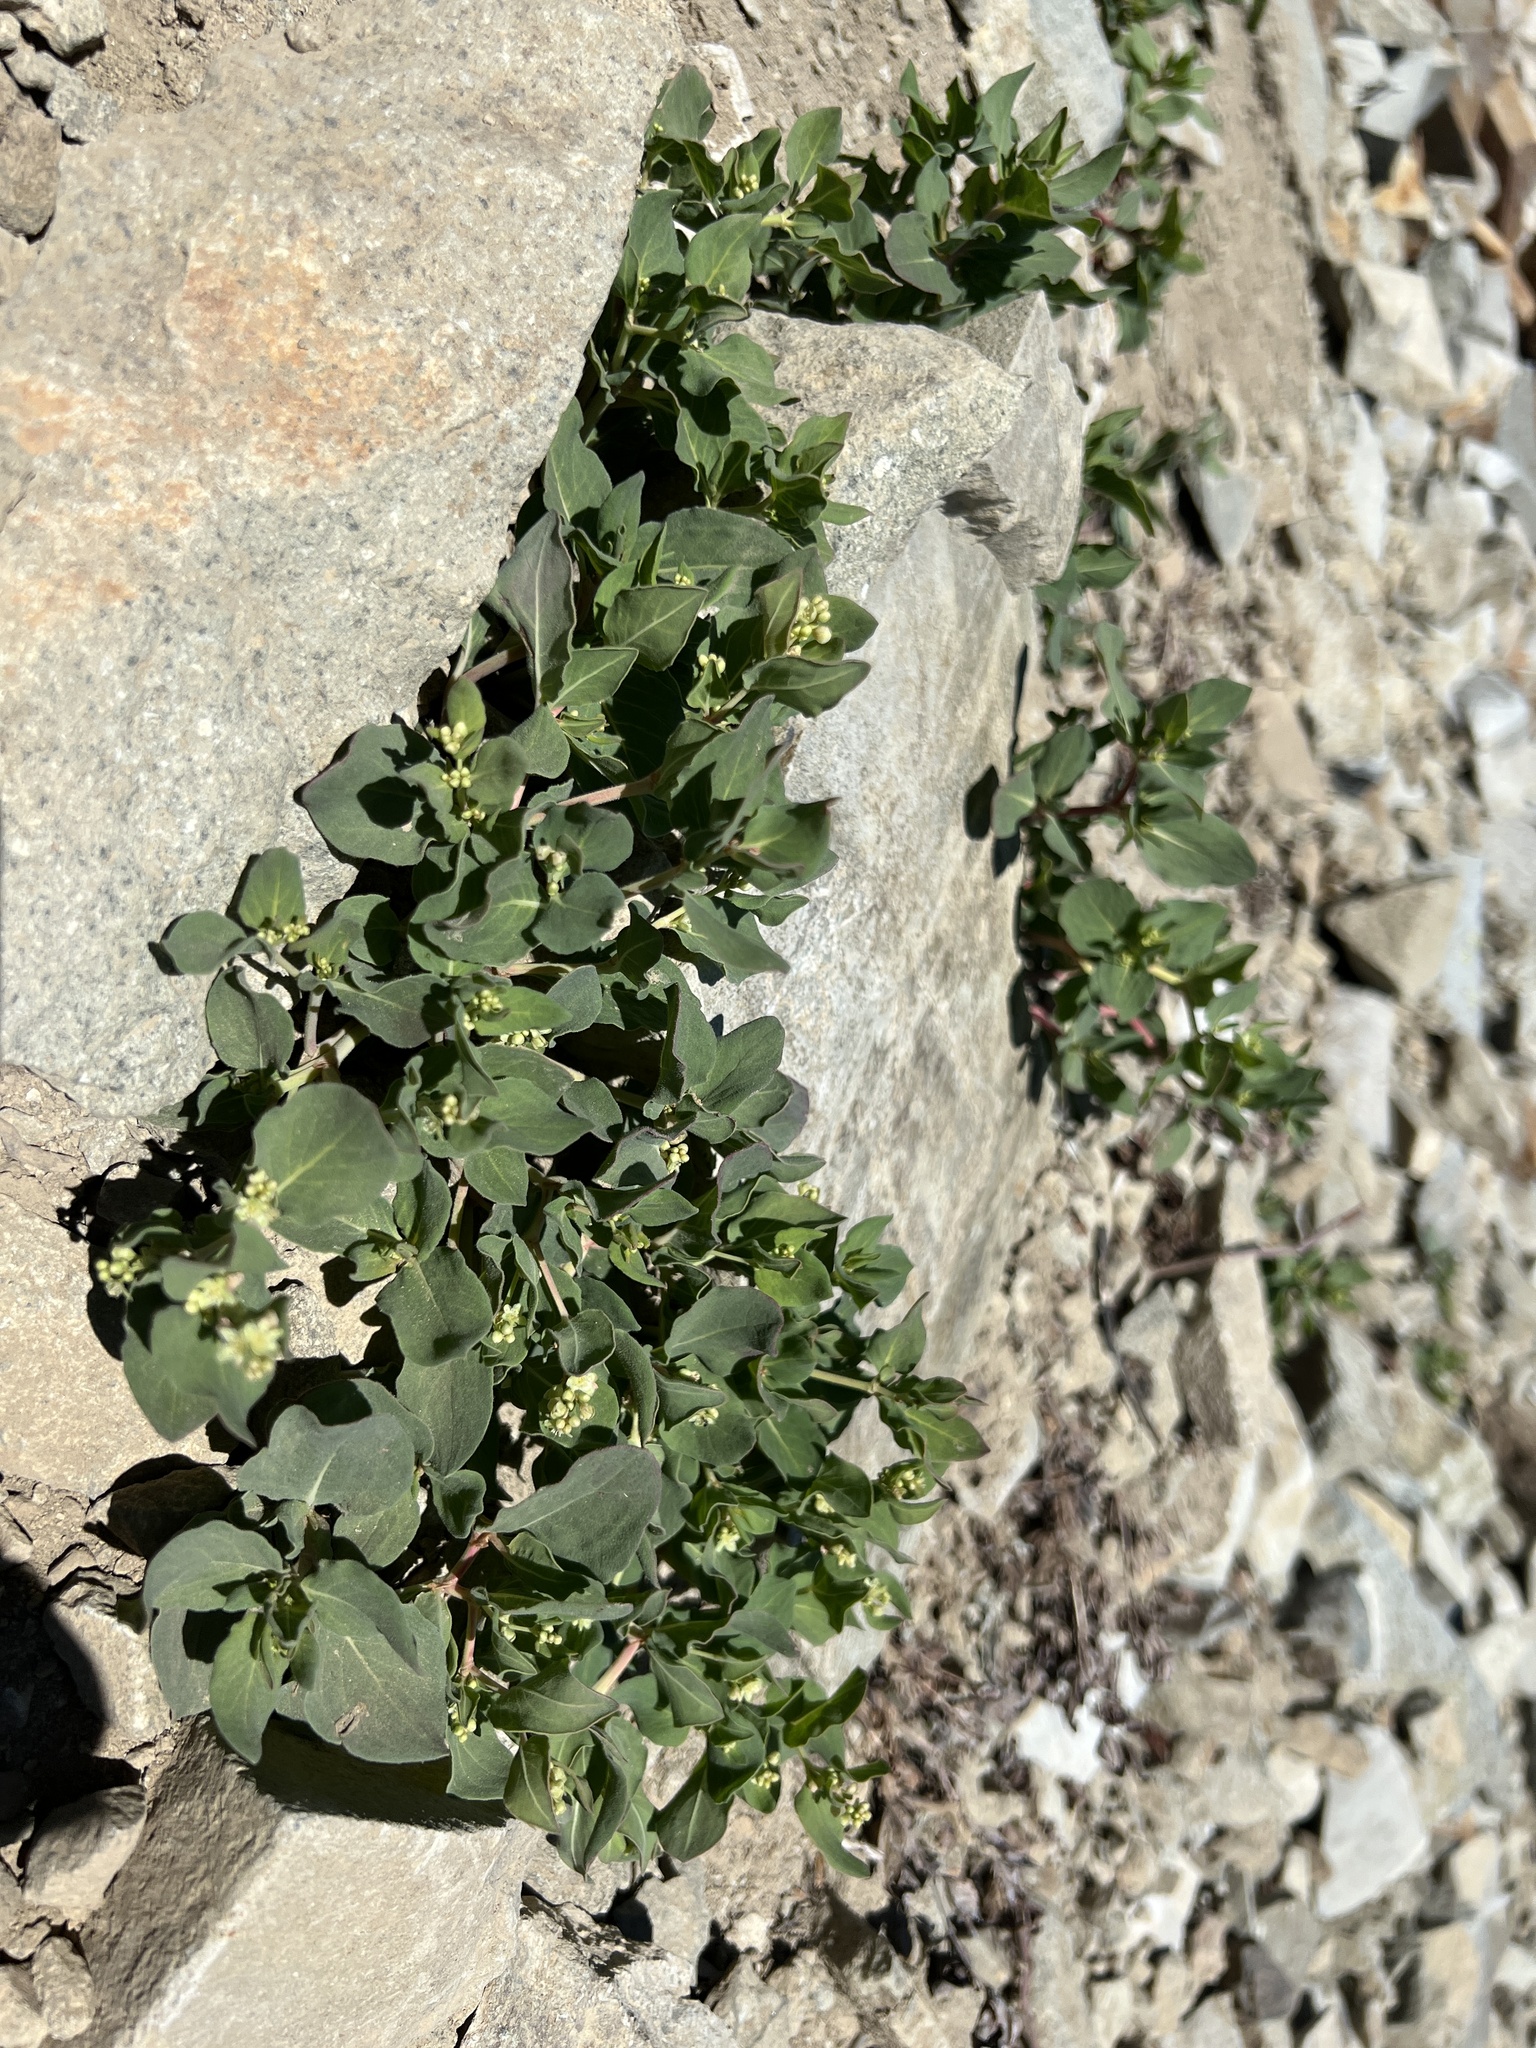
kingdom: Plantae
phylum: Tracheophyta
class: Magnoliopsida
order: Caryophyllales
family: Polygonaceae
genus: Koenigia
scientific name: Koenigia davisiae
